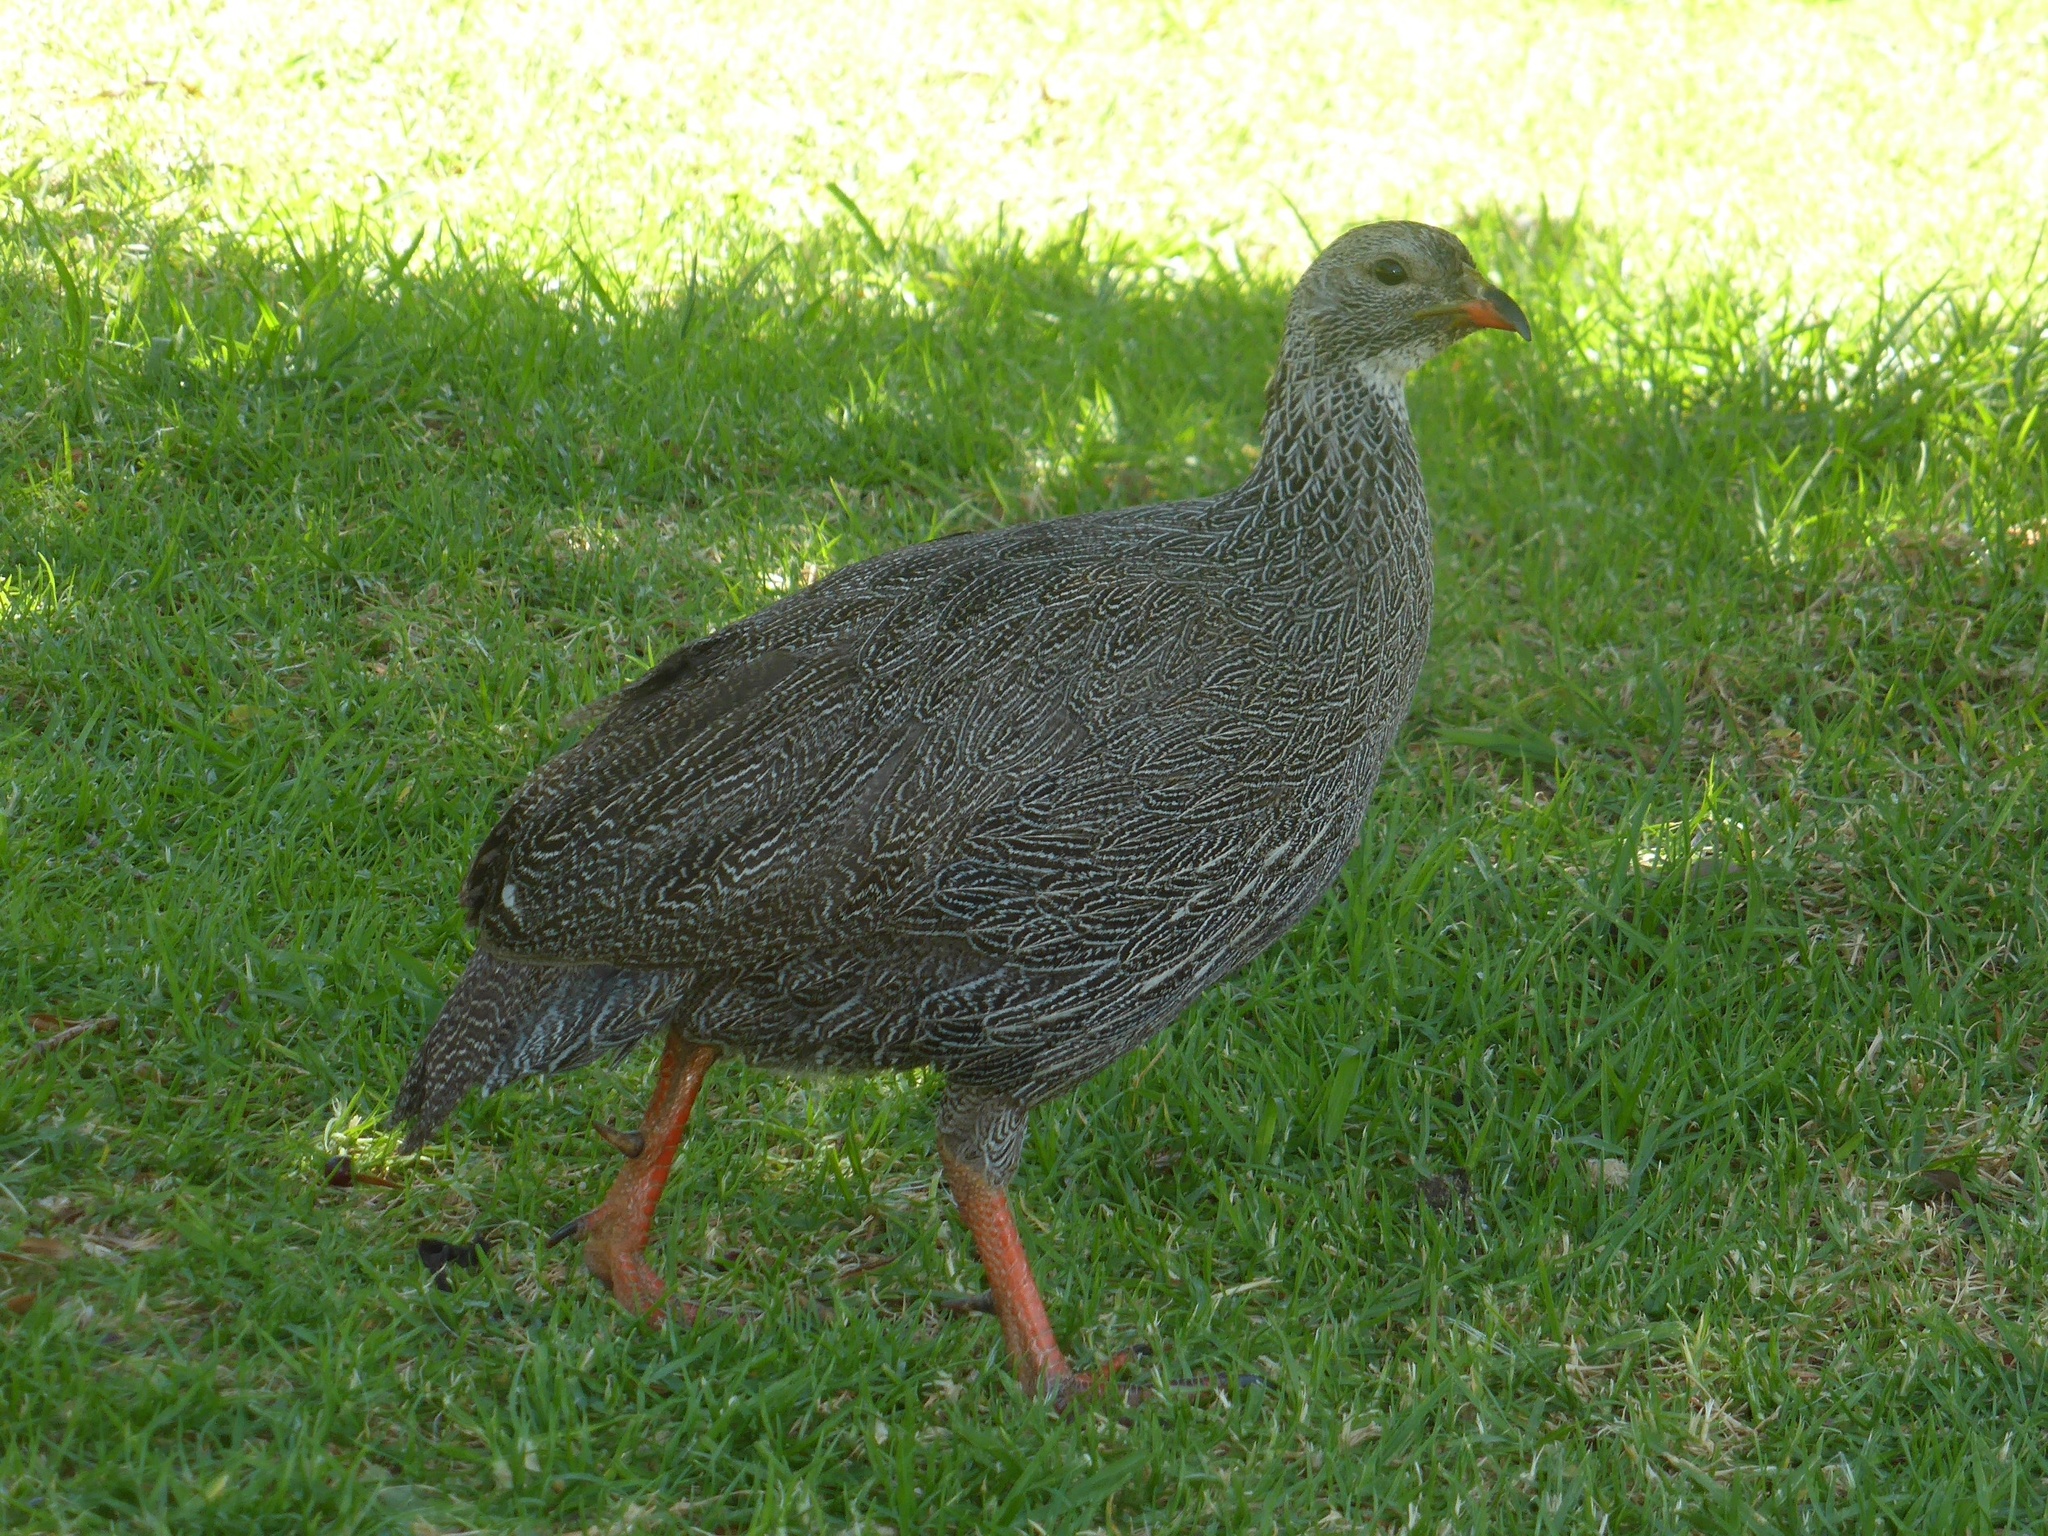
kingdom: Animalia
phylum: Chordata
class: Aves
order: Galliformes
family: Phasianidae
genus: Pternistis
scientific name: Pternistis capensis
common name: Cape spurfowl
